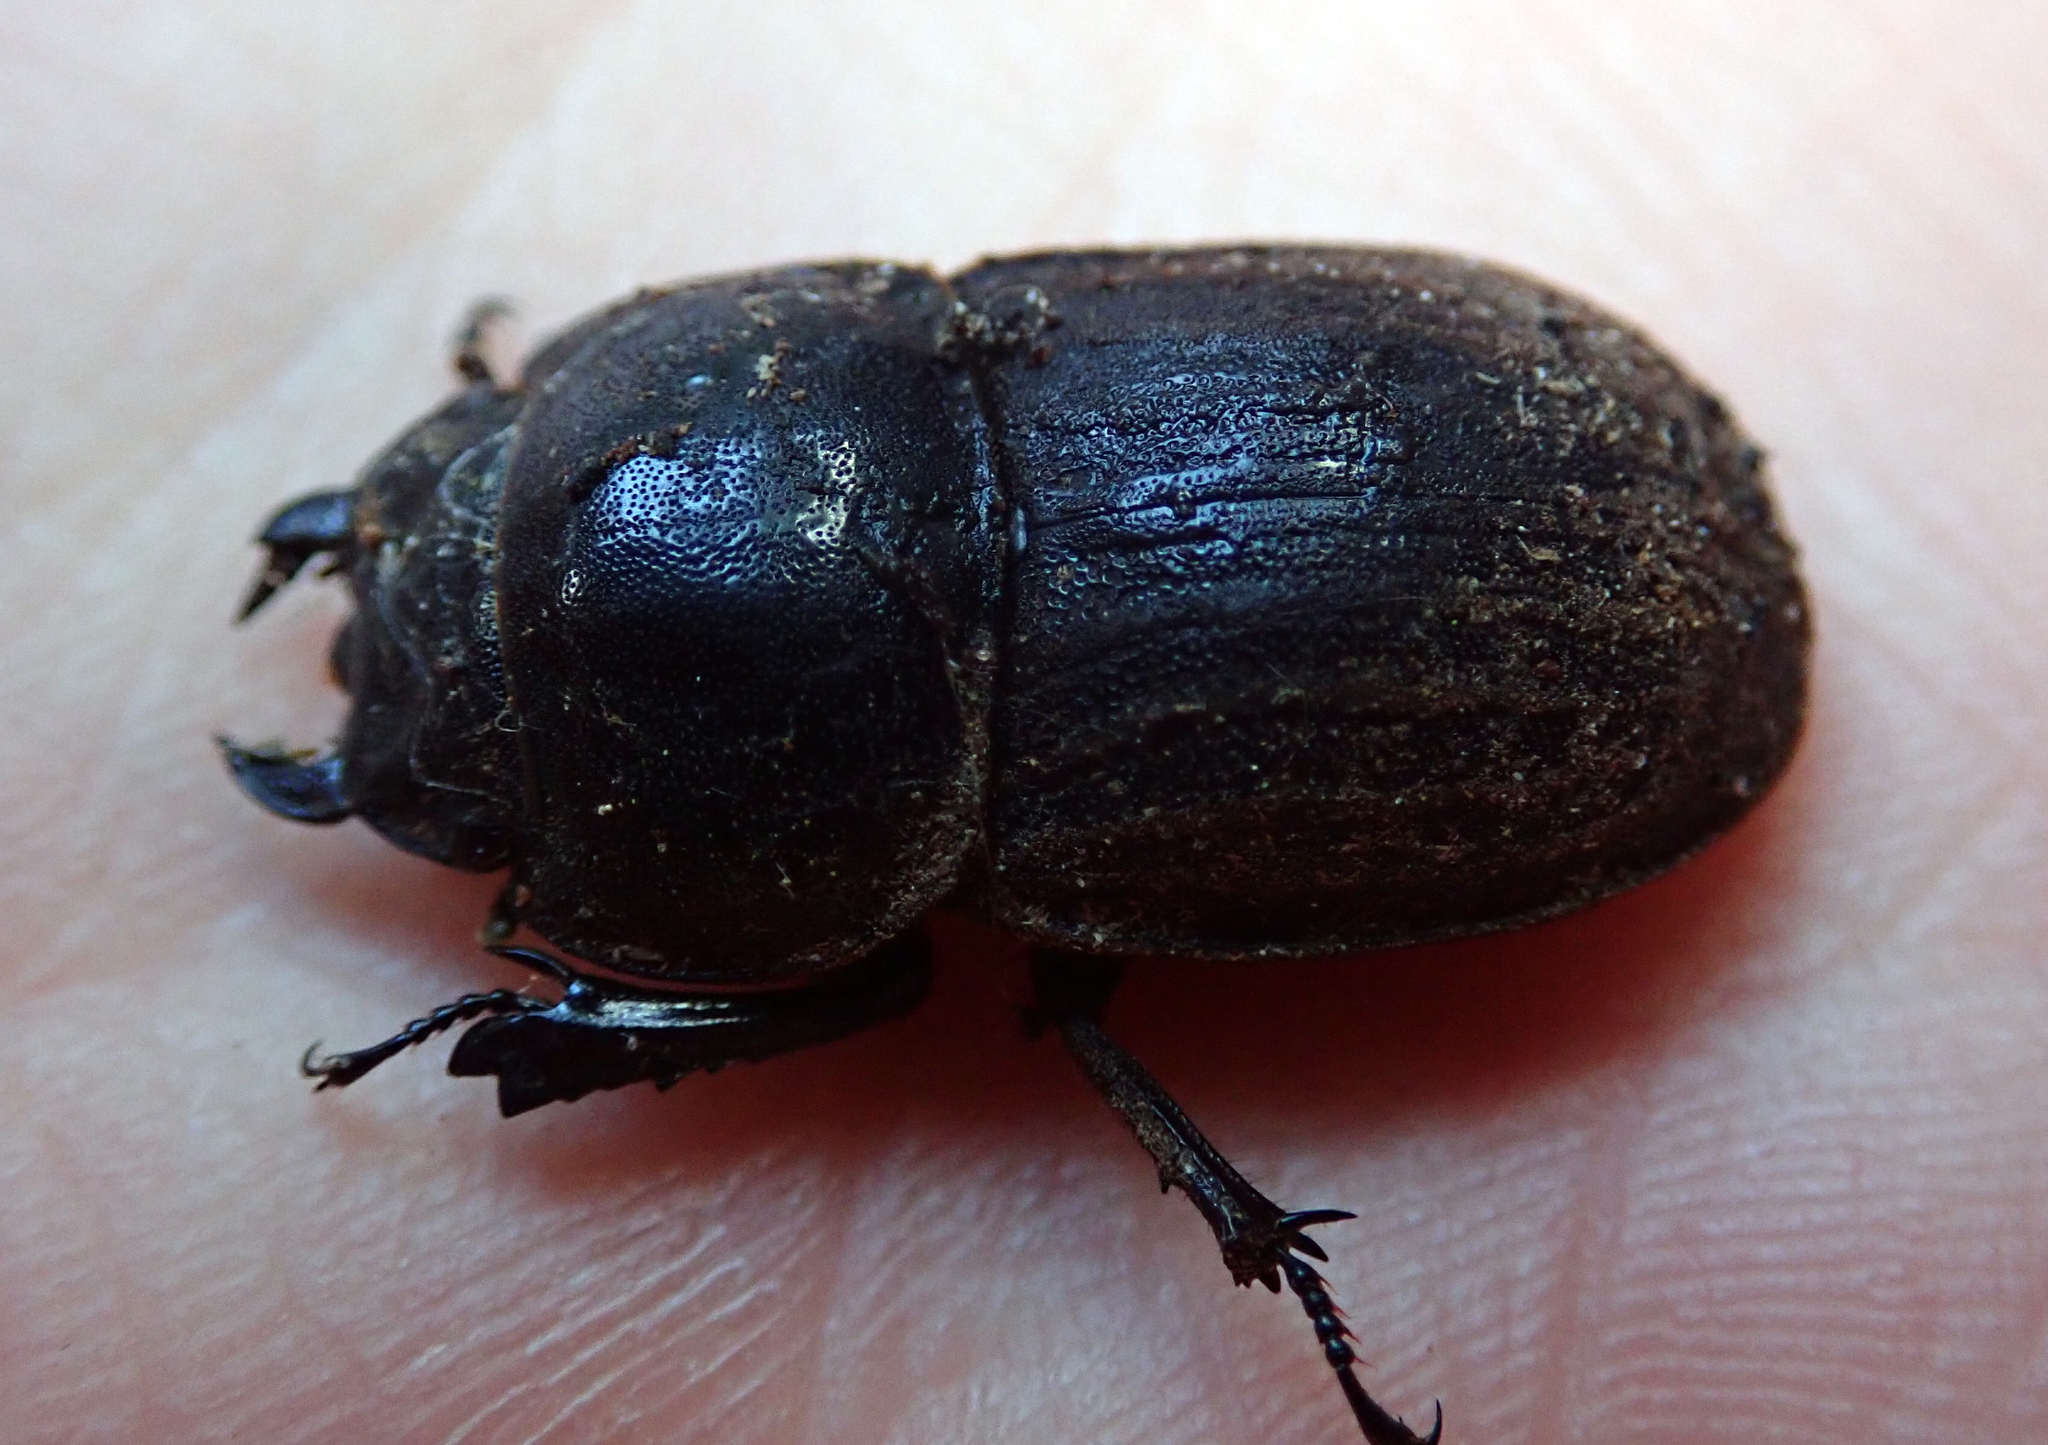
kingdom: Animalia
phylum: Arthropoda
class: Insecta
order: Coleoptera
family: Lucanidae
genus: Geodorcus
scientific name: Geodorcus helmsi
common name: Helm's stag beetle
